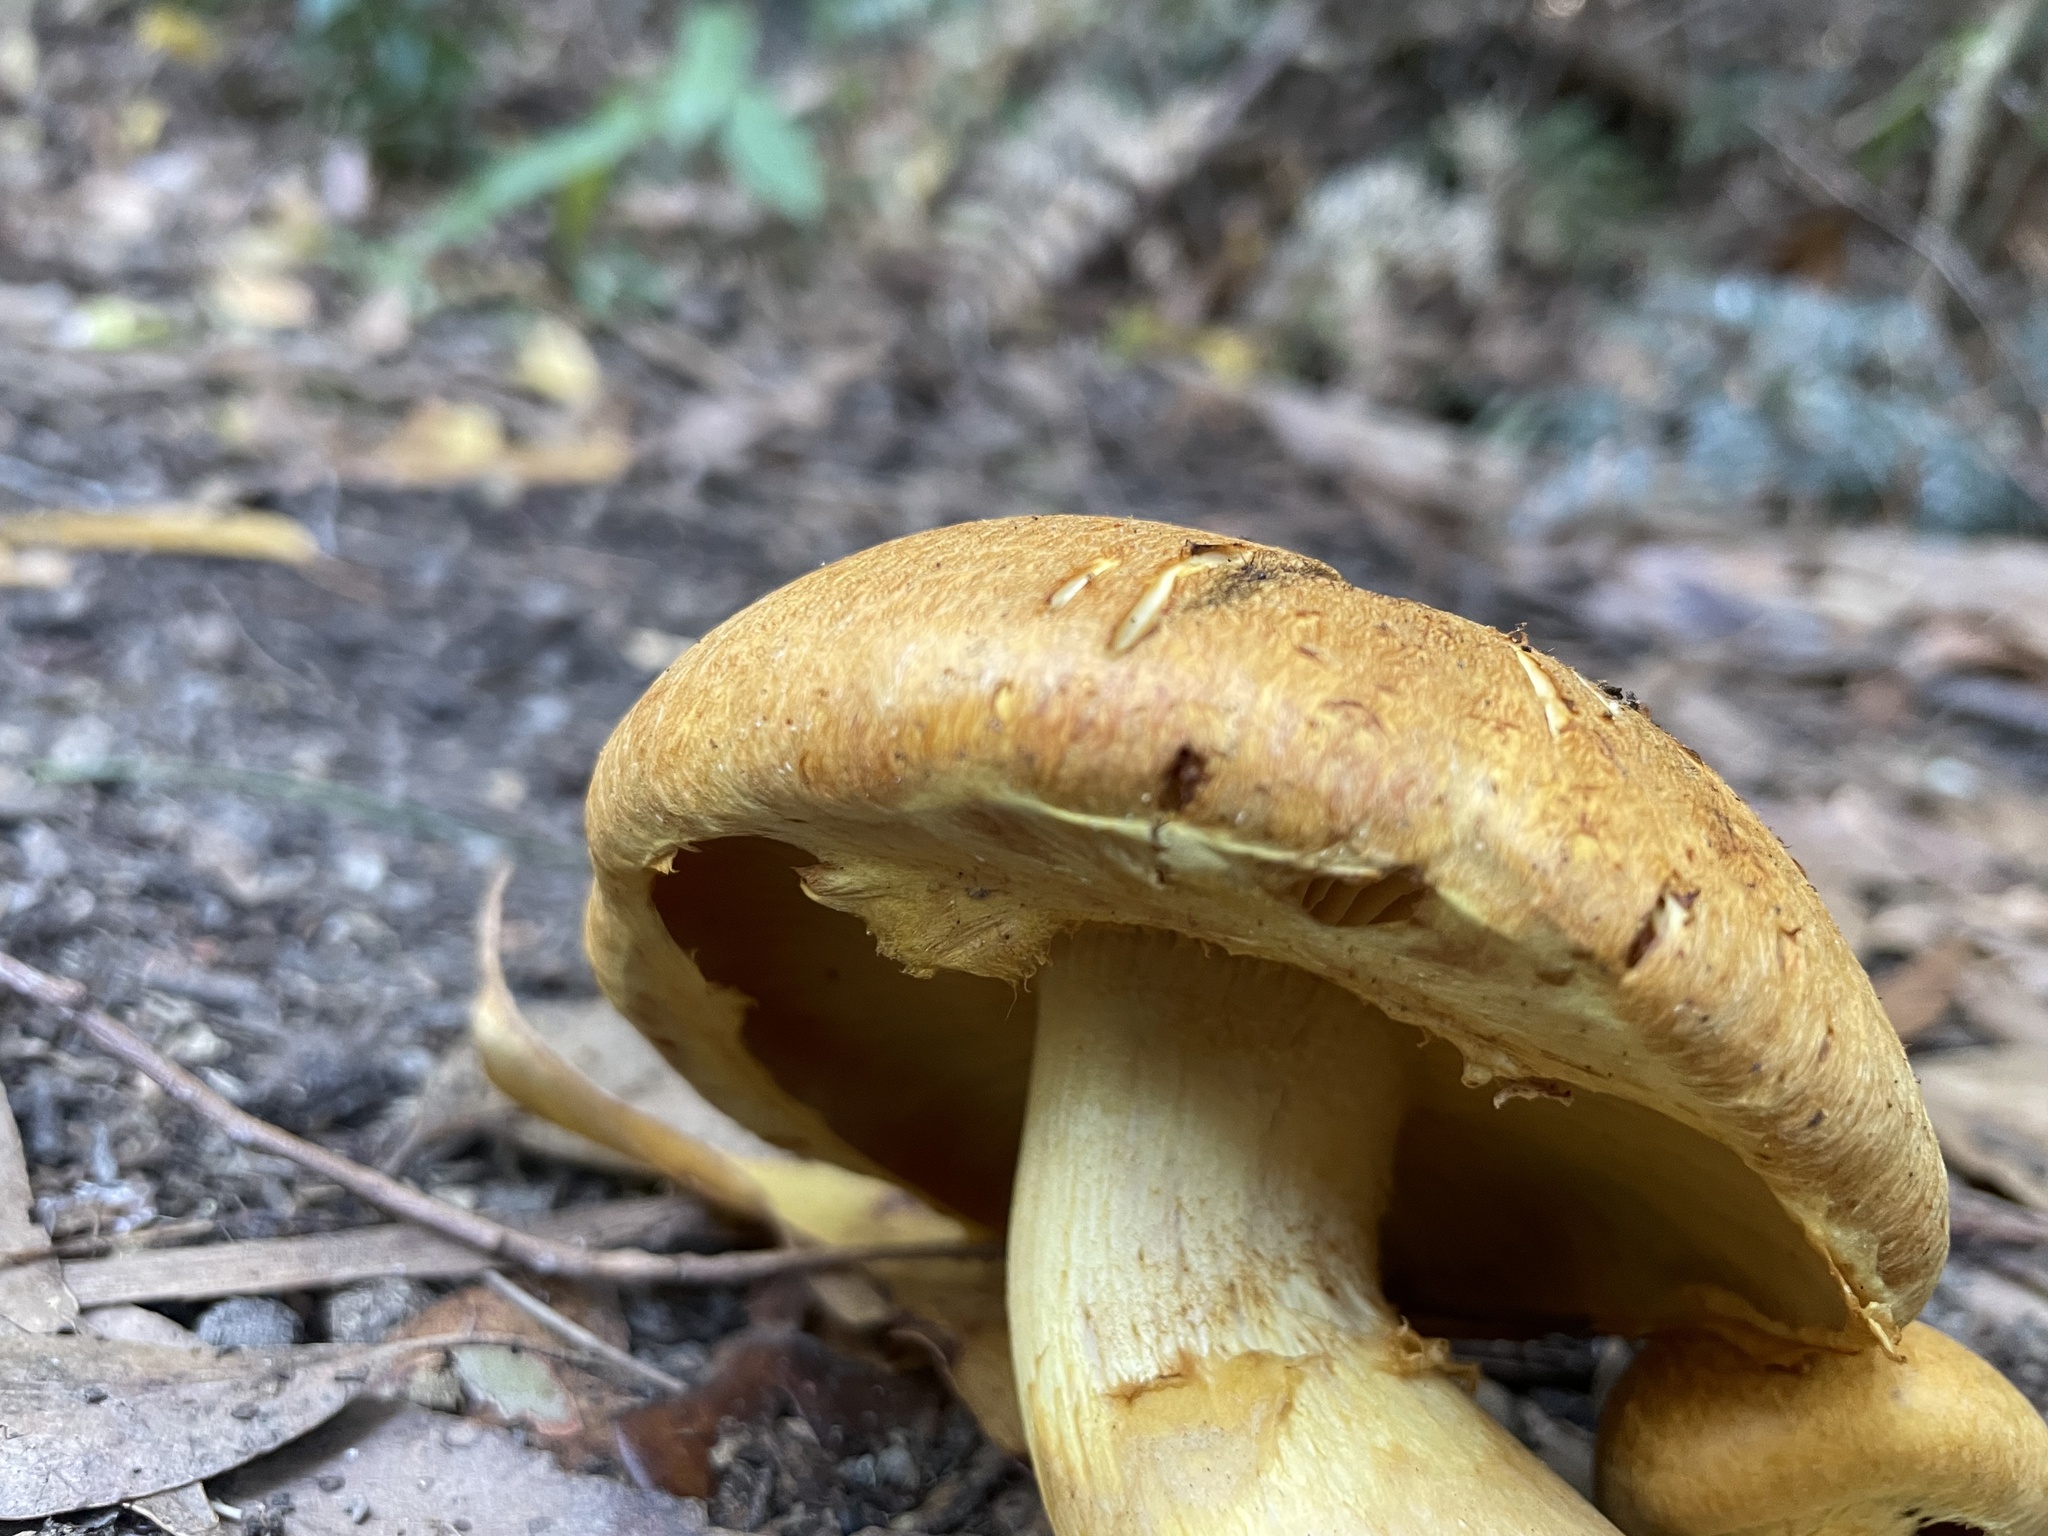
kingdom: Fungi
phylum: Basidiomycota
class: Agaricomycetes
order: Agaricales
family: Hymenogastraceae
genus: Gymnopilus
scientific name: Gymnopilus junonius
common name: Spectacular rustgill
